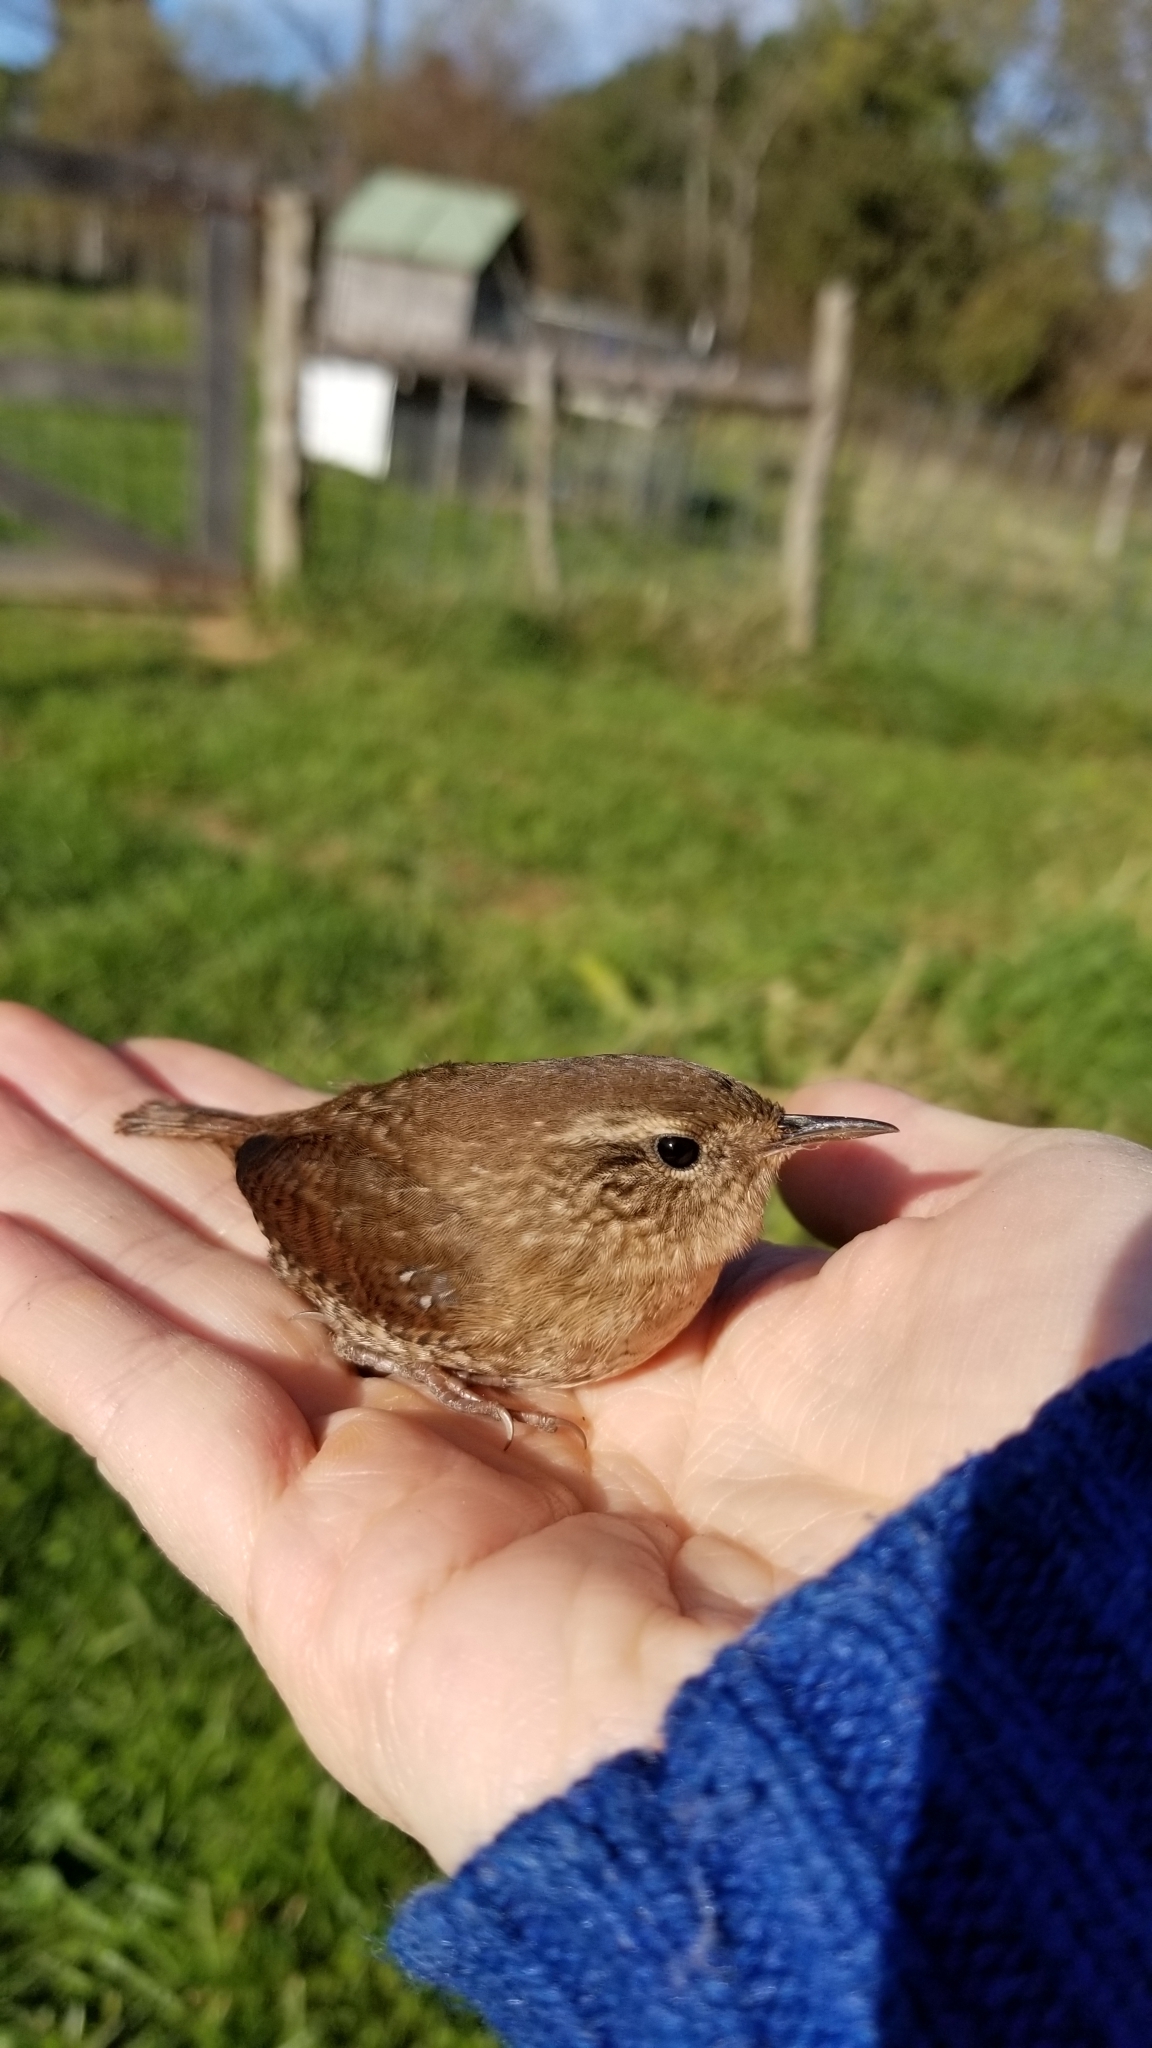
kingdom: Animalia
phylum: Chordata
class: Aves
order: Passeriformes
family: Troglodytidae
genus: Troglodytes
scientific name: Troglodytes hiemalis
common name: Winter wren
